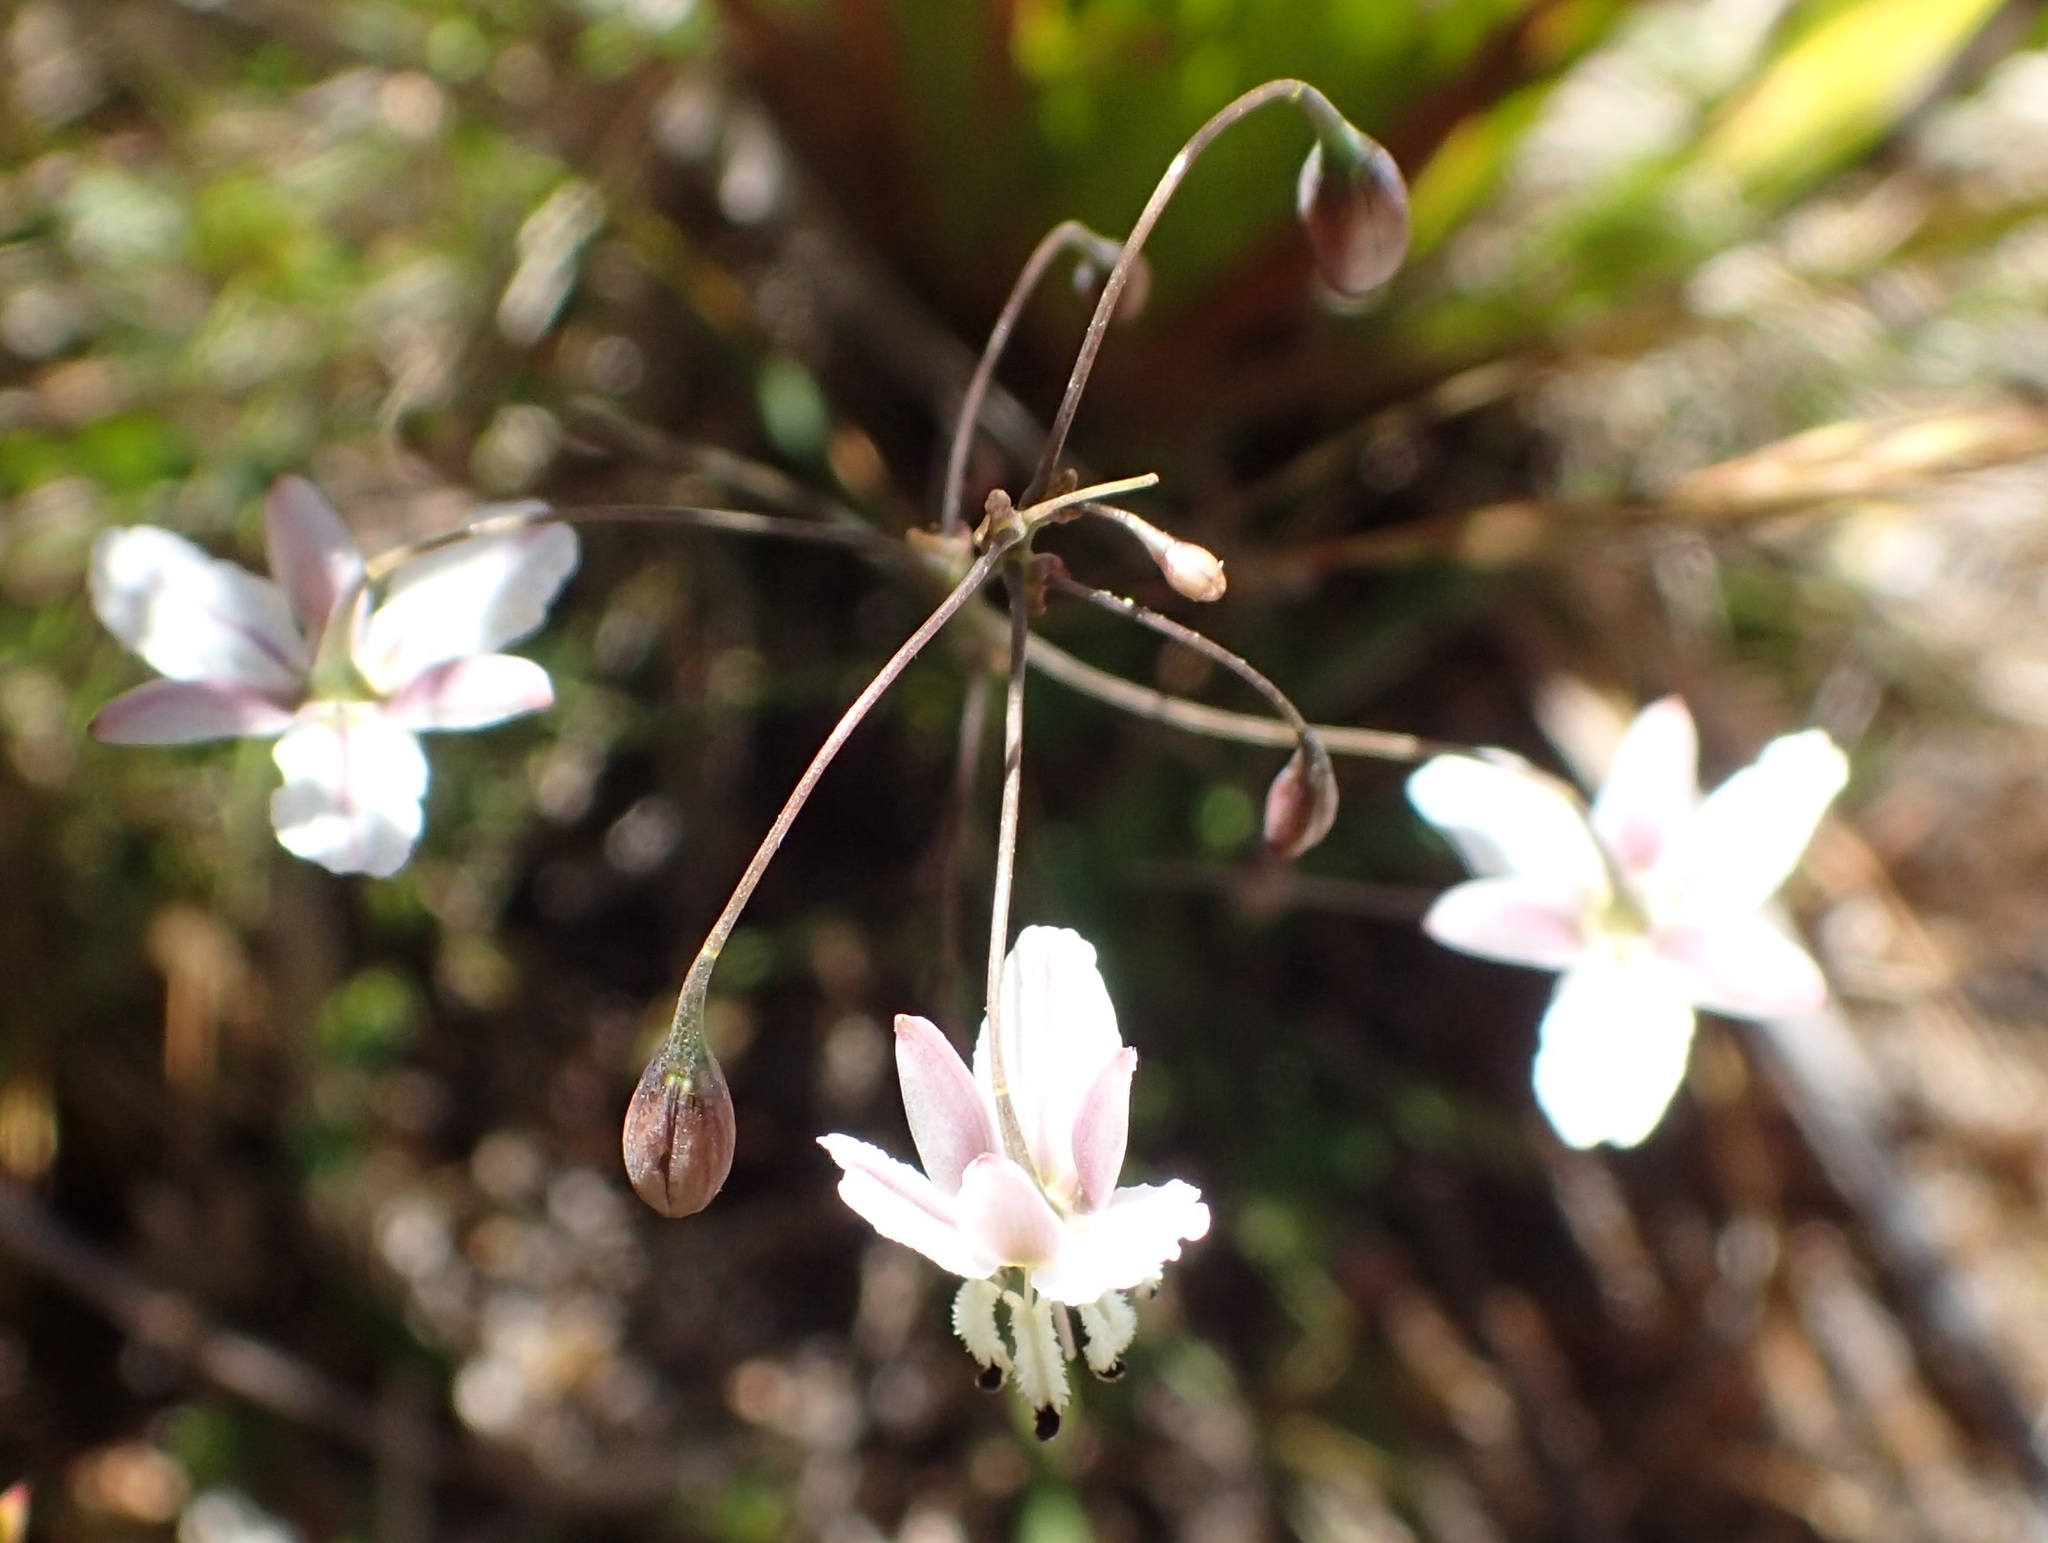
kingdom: Plantae
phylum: Tracheophyta
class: Liliopsida
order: Asparagales
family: Asparagaceae
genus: Arthropodium
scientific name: Arthropodium milleflorum
